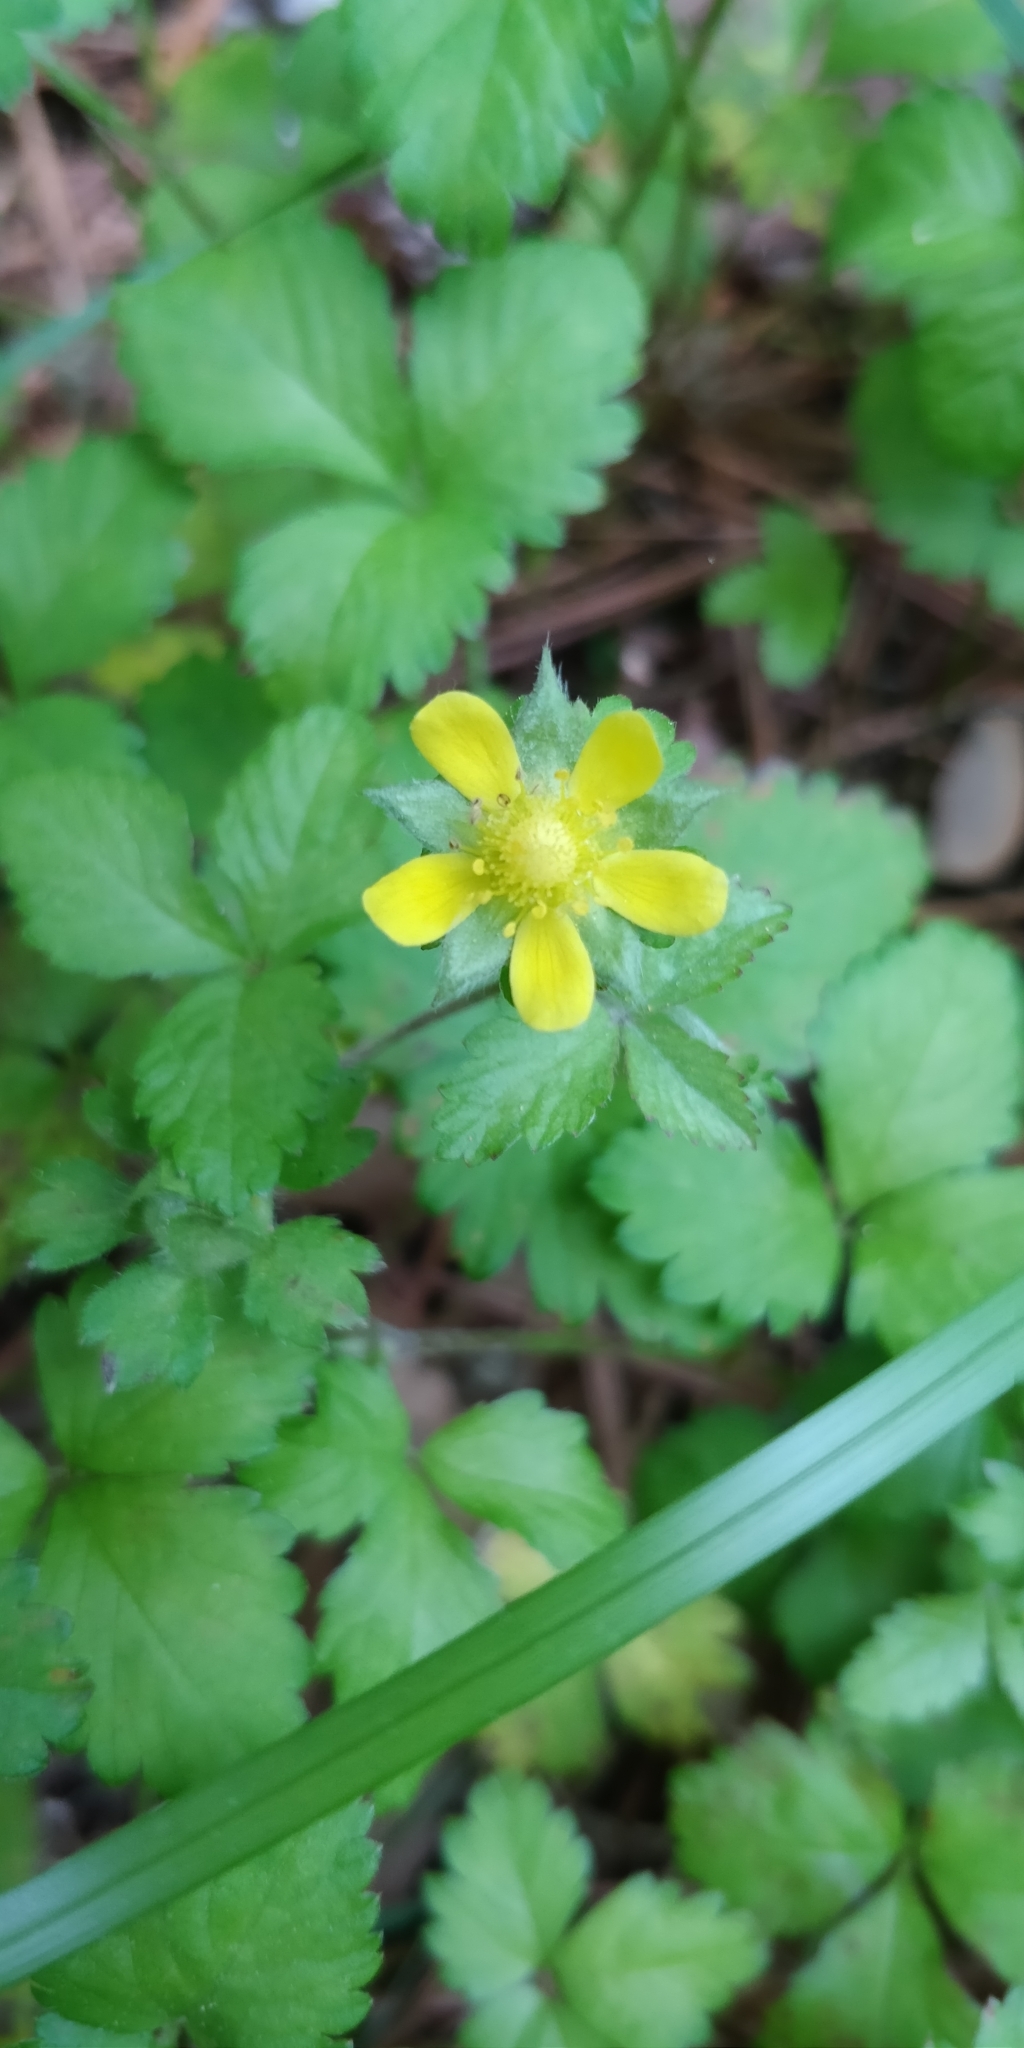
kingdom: Plantae
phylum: Tracheophyta
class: Magnoliopsida
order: Rosales
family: Rosaceae
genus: Potentilla
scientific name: Potentilla indica
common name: Yellow-flowered strawberry
